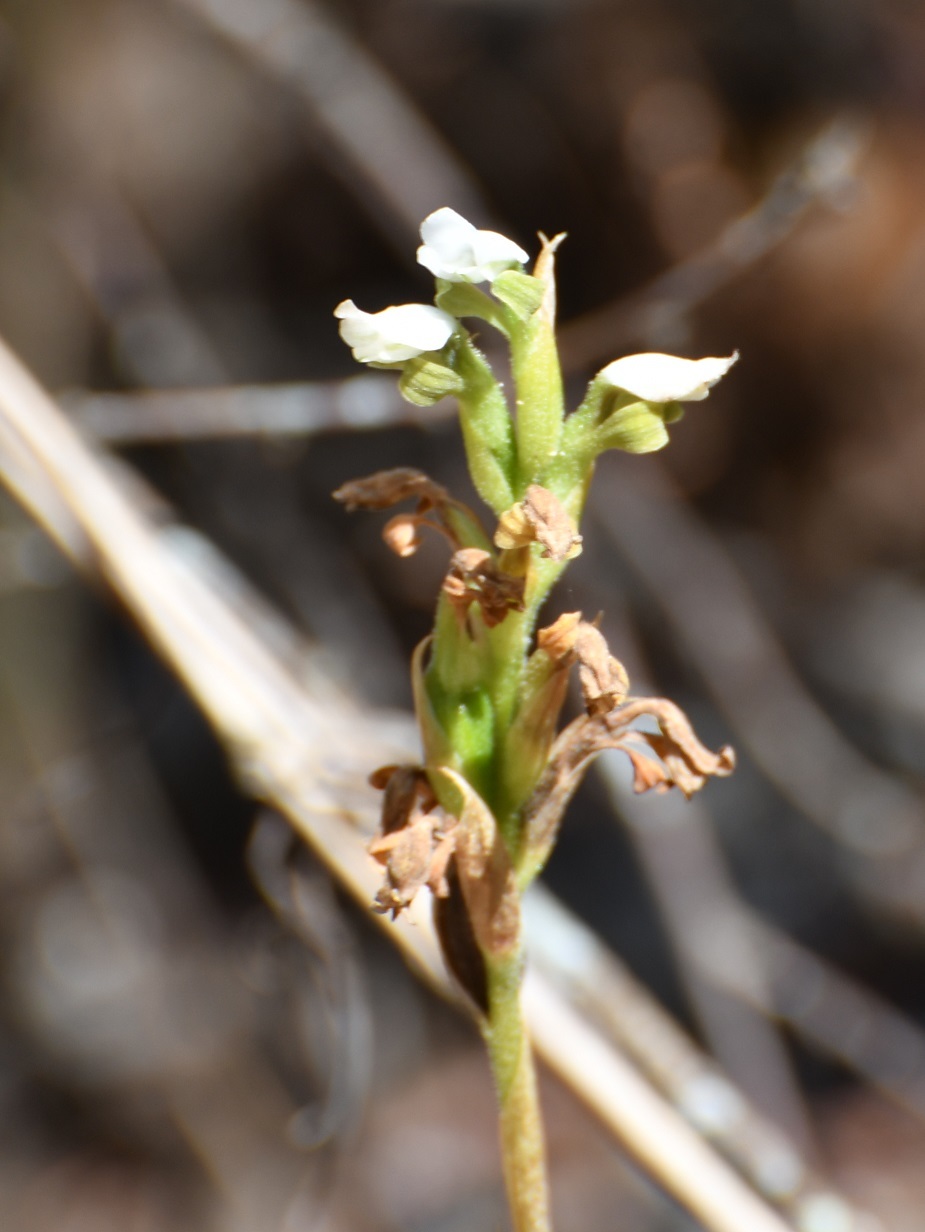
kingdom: Plantae
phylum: Tracheophyta
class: Liliopsida
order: Asparagales
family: Orchidaceae
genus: Aulosepalum
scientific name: Aulosepalum hemichrea
